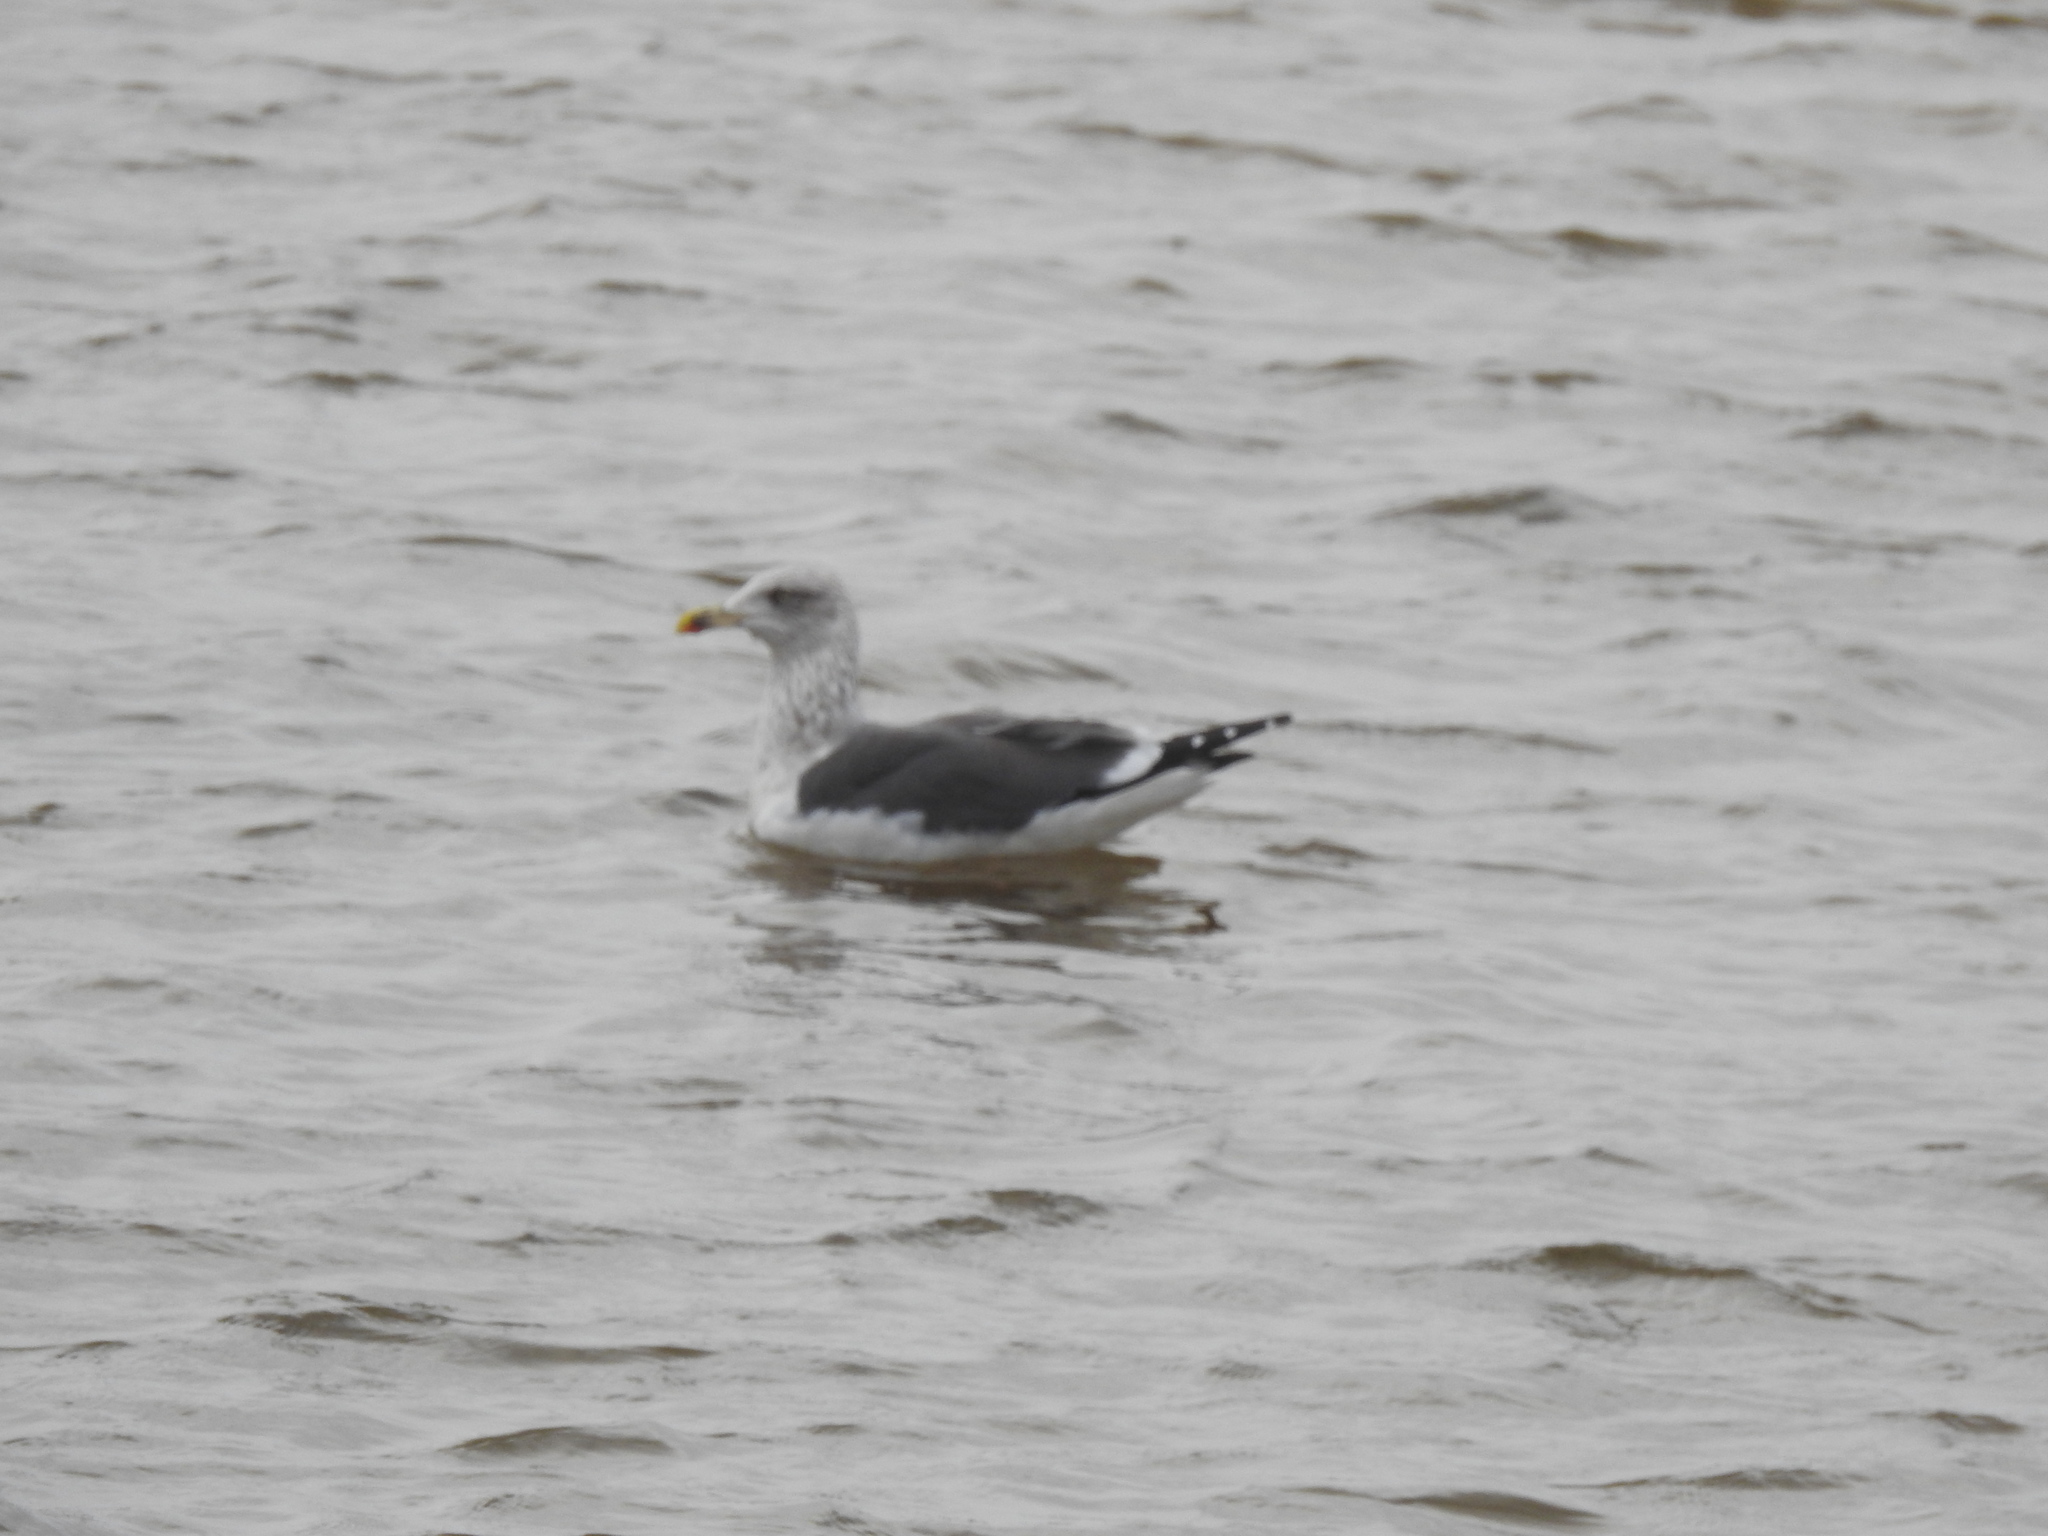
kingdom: Animalia
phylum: Chordata
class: Aves
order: Charadriiformes
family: Laridae
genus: Larus
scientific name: Larus fuscus
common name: Lesser black-backed gull
